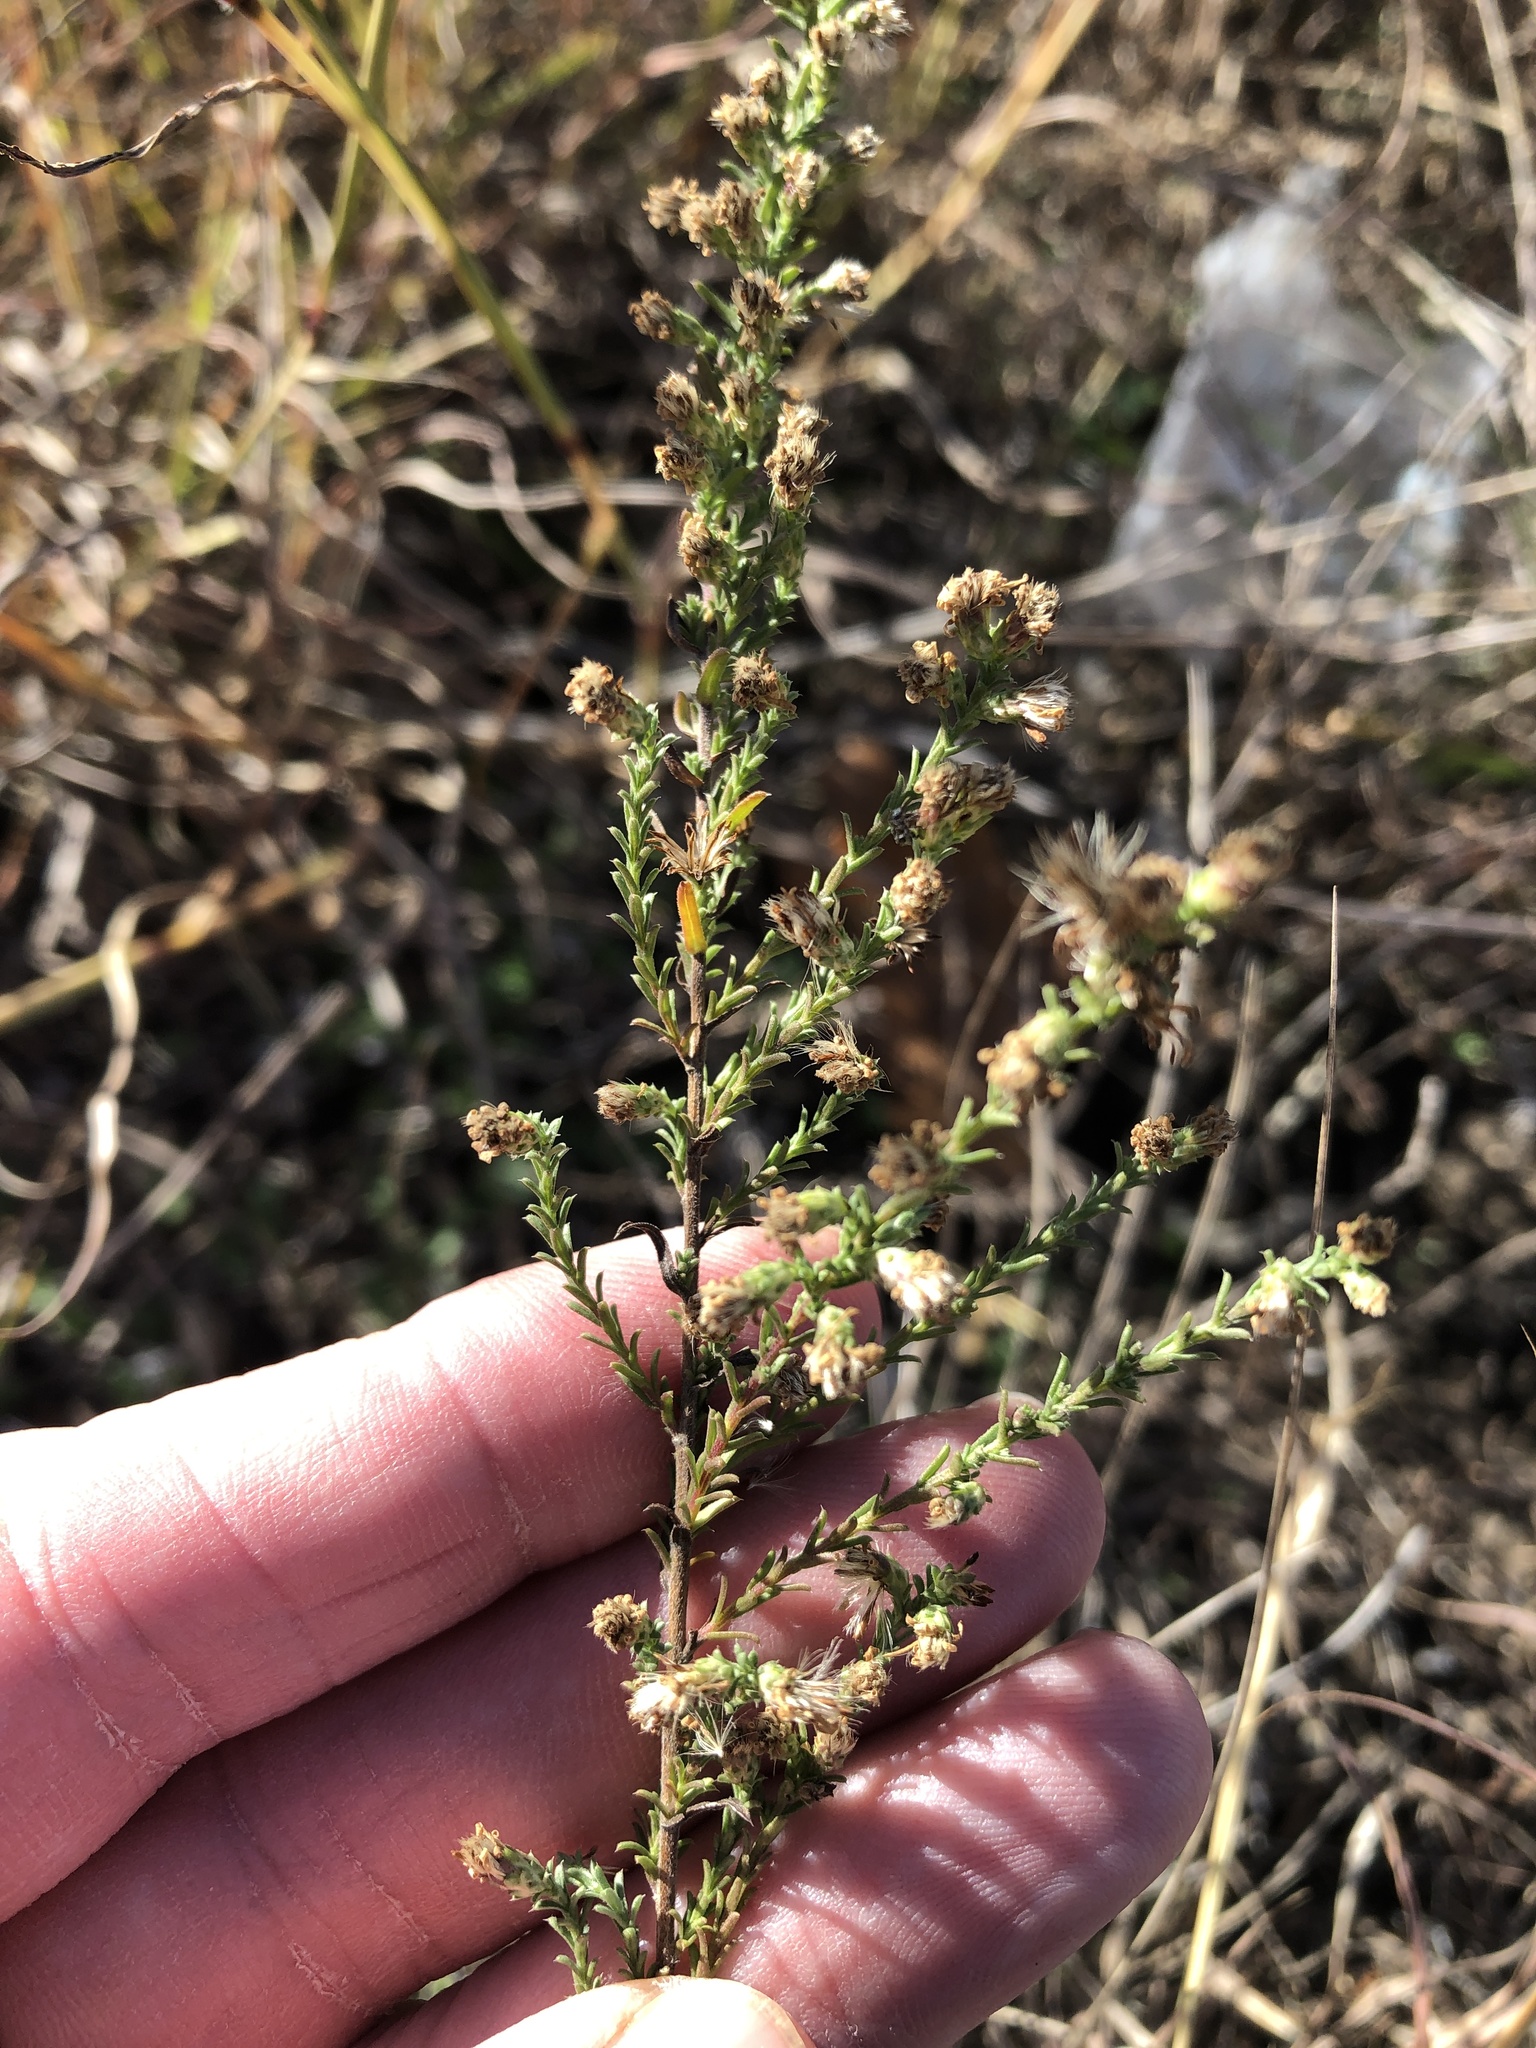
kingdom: Plantae
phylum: Tracheophyta
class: Magnoliopsida
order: Asterales
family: Asteraceae
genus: Symphyotrichum
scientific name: Symphyotrichum ericoides
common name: Heath aster
